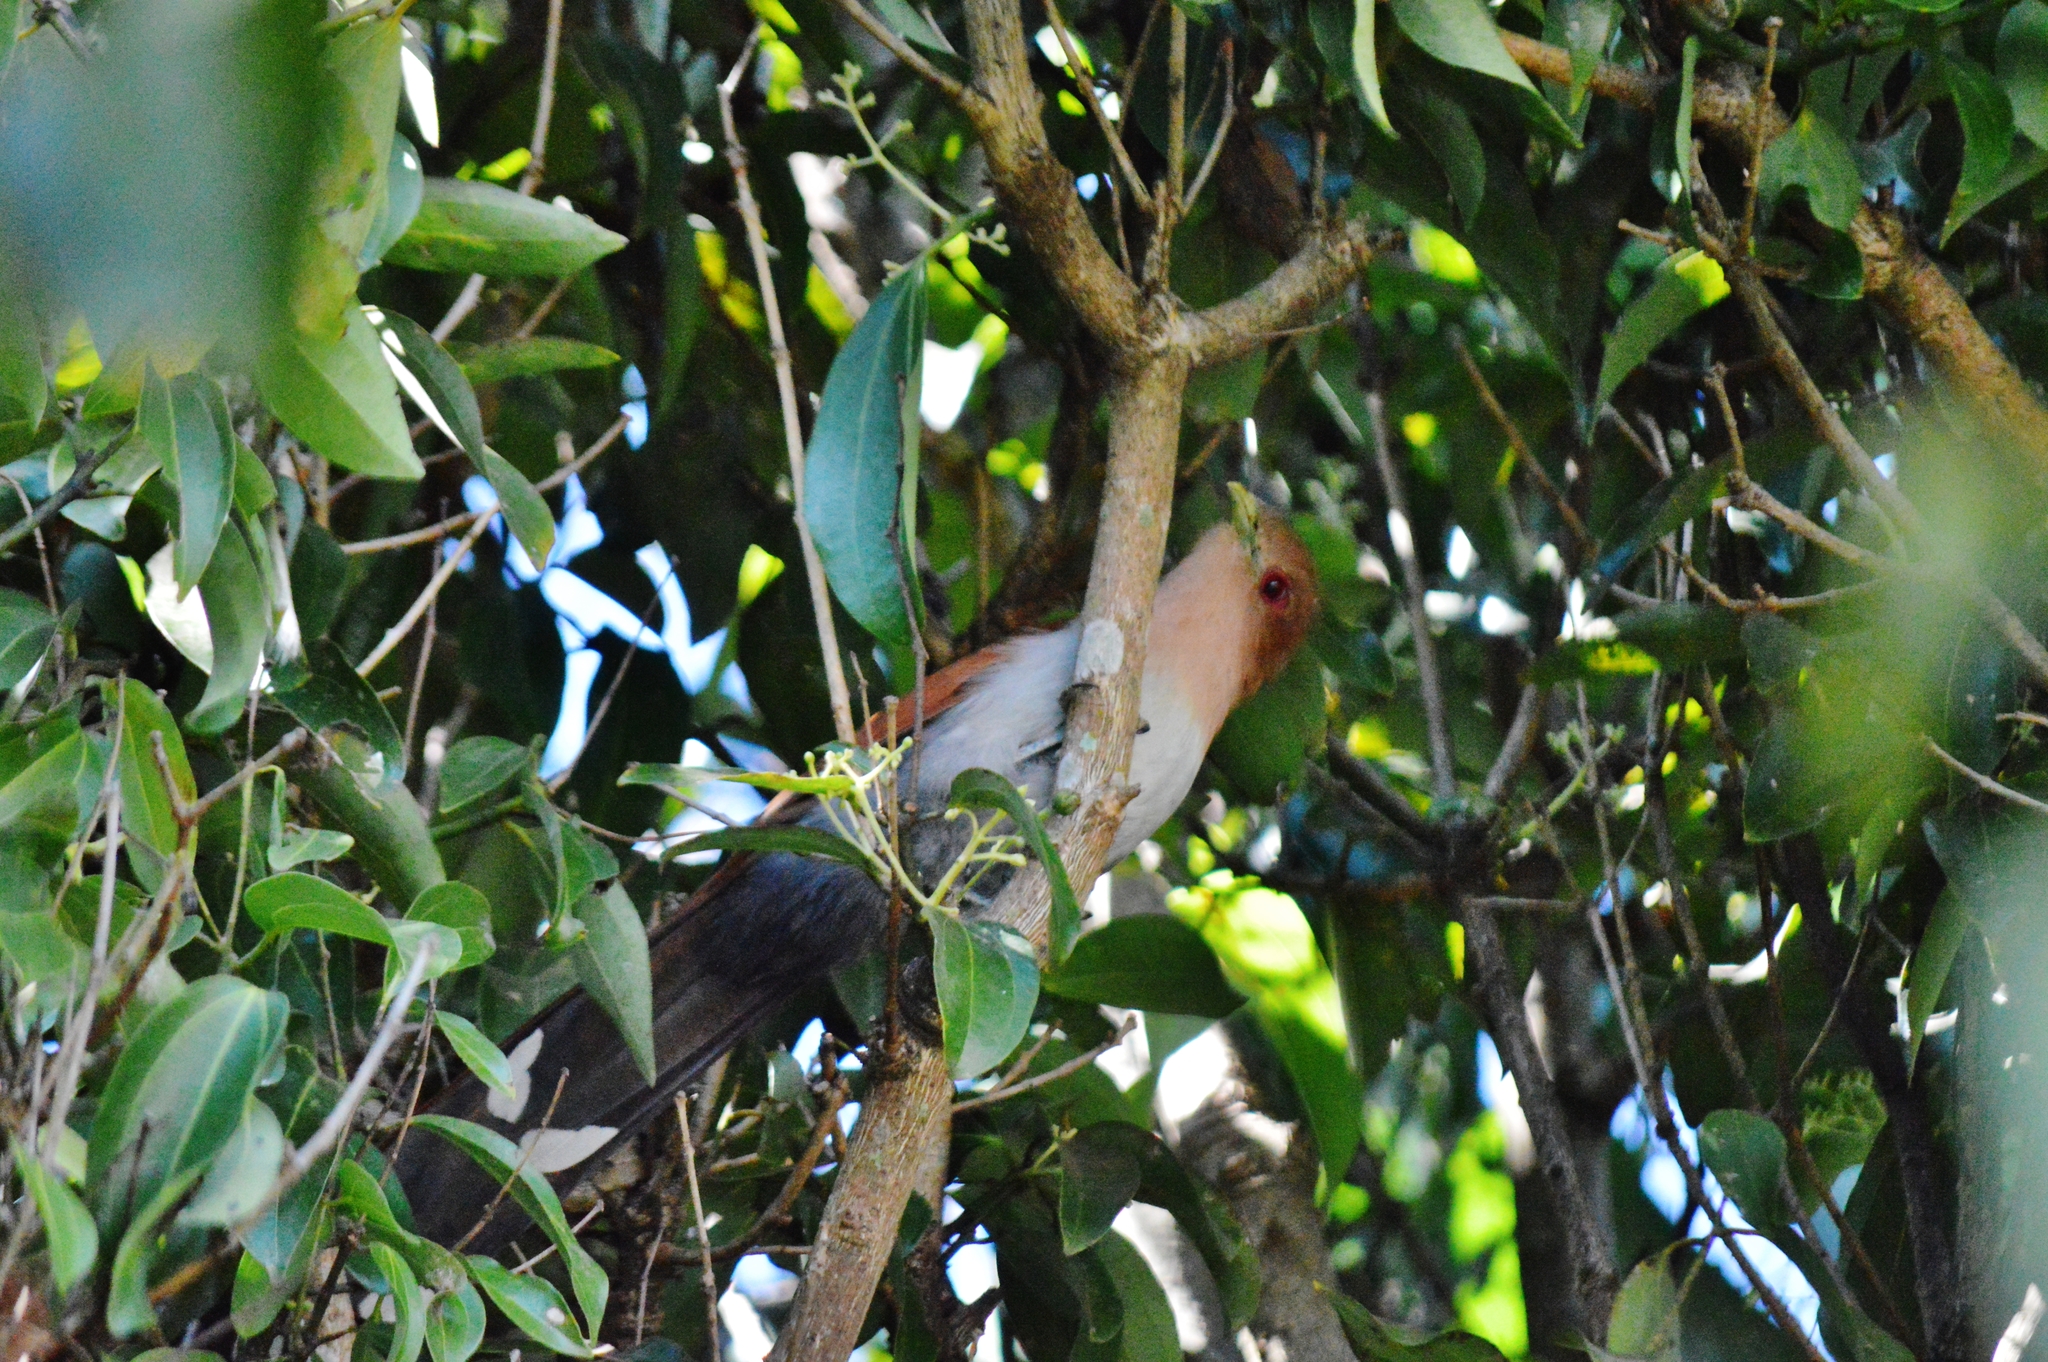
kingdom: Animalia
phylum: Chordata
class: Aves
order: Cuculiformes
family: Cuculidae
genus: Piaya
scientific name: Piaya cayana
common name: Squirrel cuckoo
